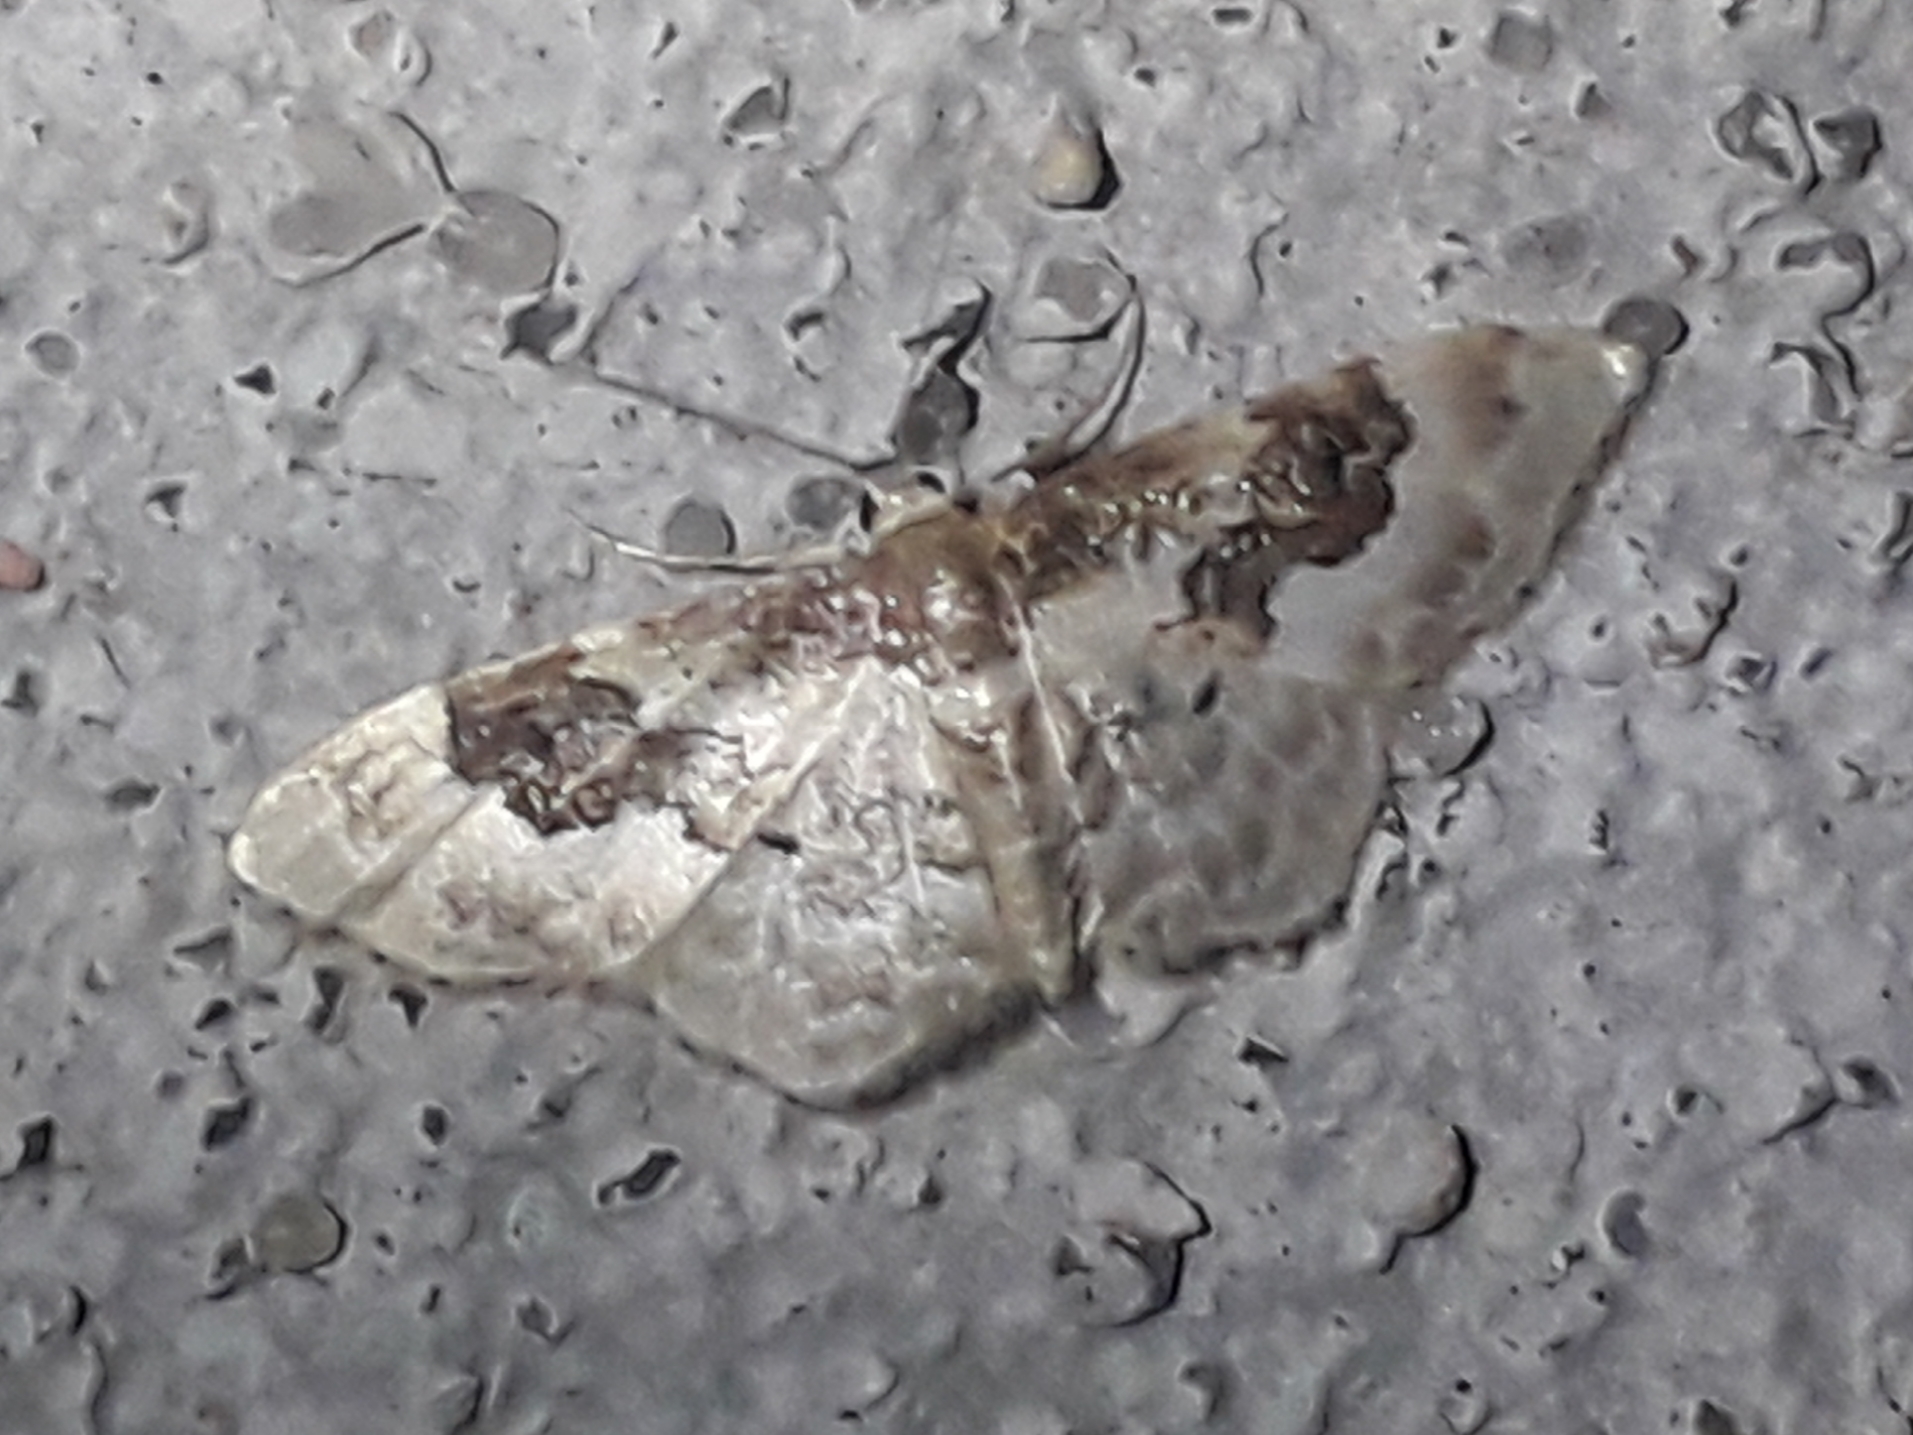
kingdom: Animalia
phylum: Arthropoda
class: Insecta
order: Lepidoptera
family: Geometridae
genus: Idaea
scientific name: Idaea rusticata
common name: Least carpet
